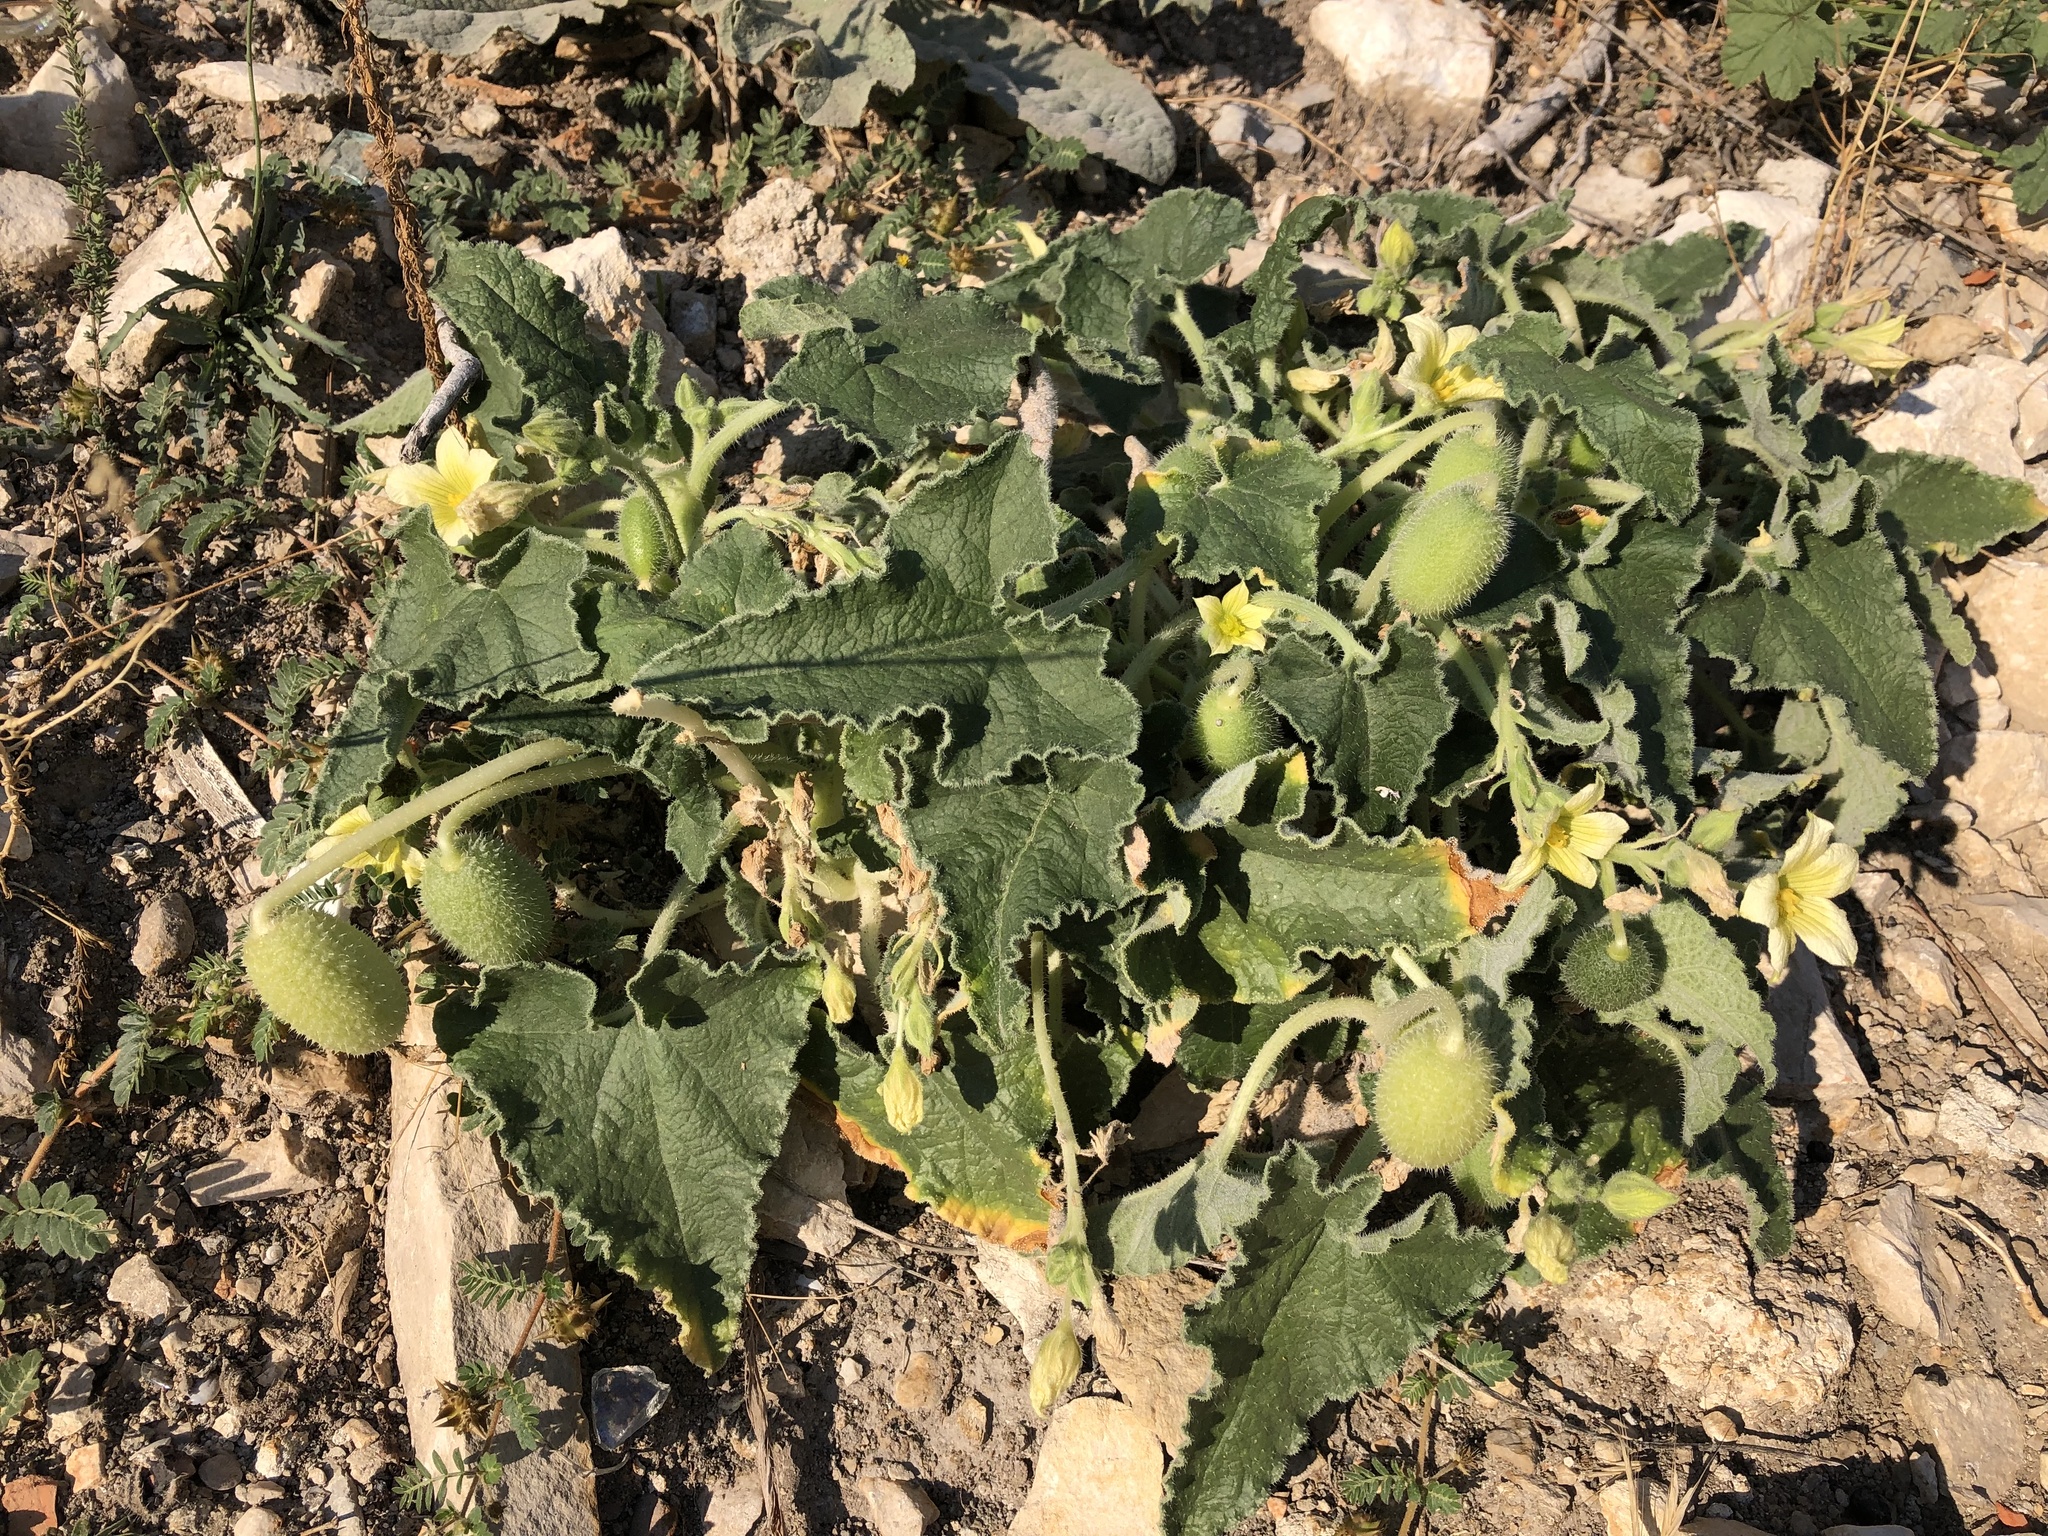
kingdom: Plantae
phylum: Tracheophyta
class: Magnoliopsida
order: Cucurbitales
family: Cucurbitaceae
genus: Ecballium
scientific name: Ecballium elaterium
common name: Squirting cucumber
